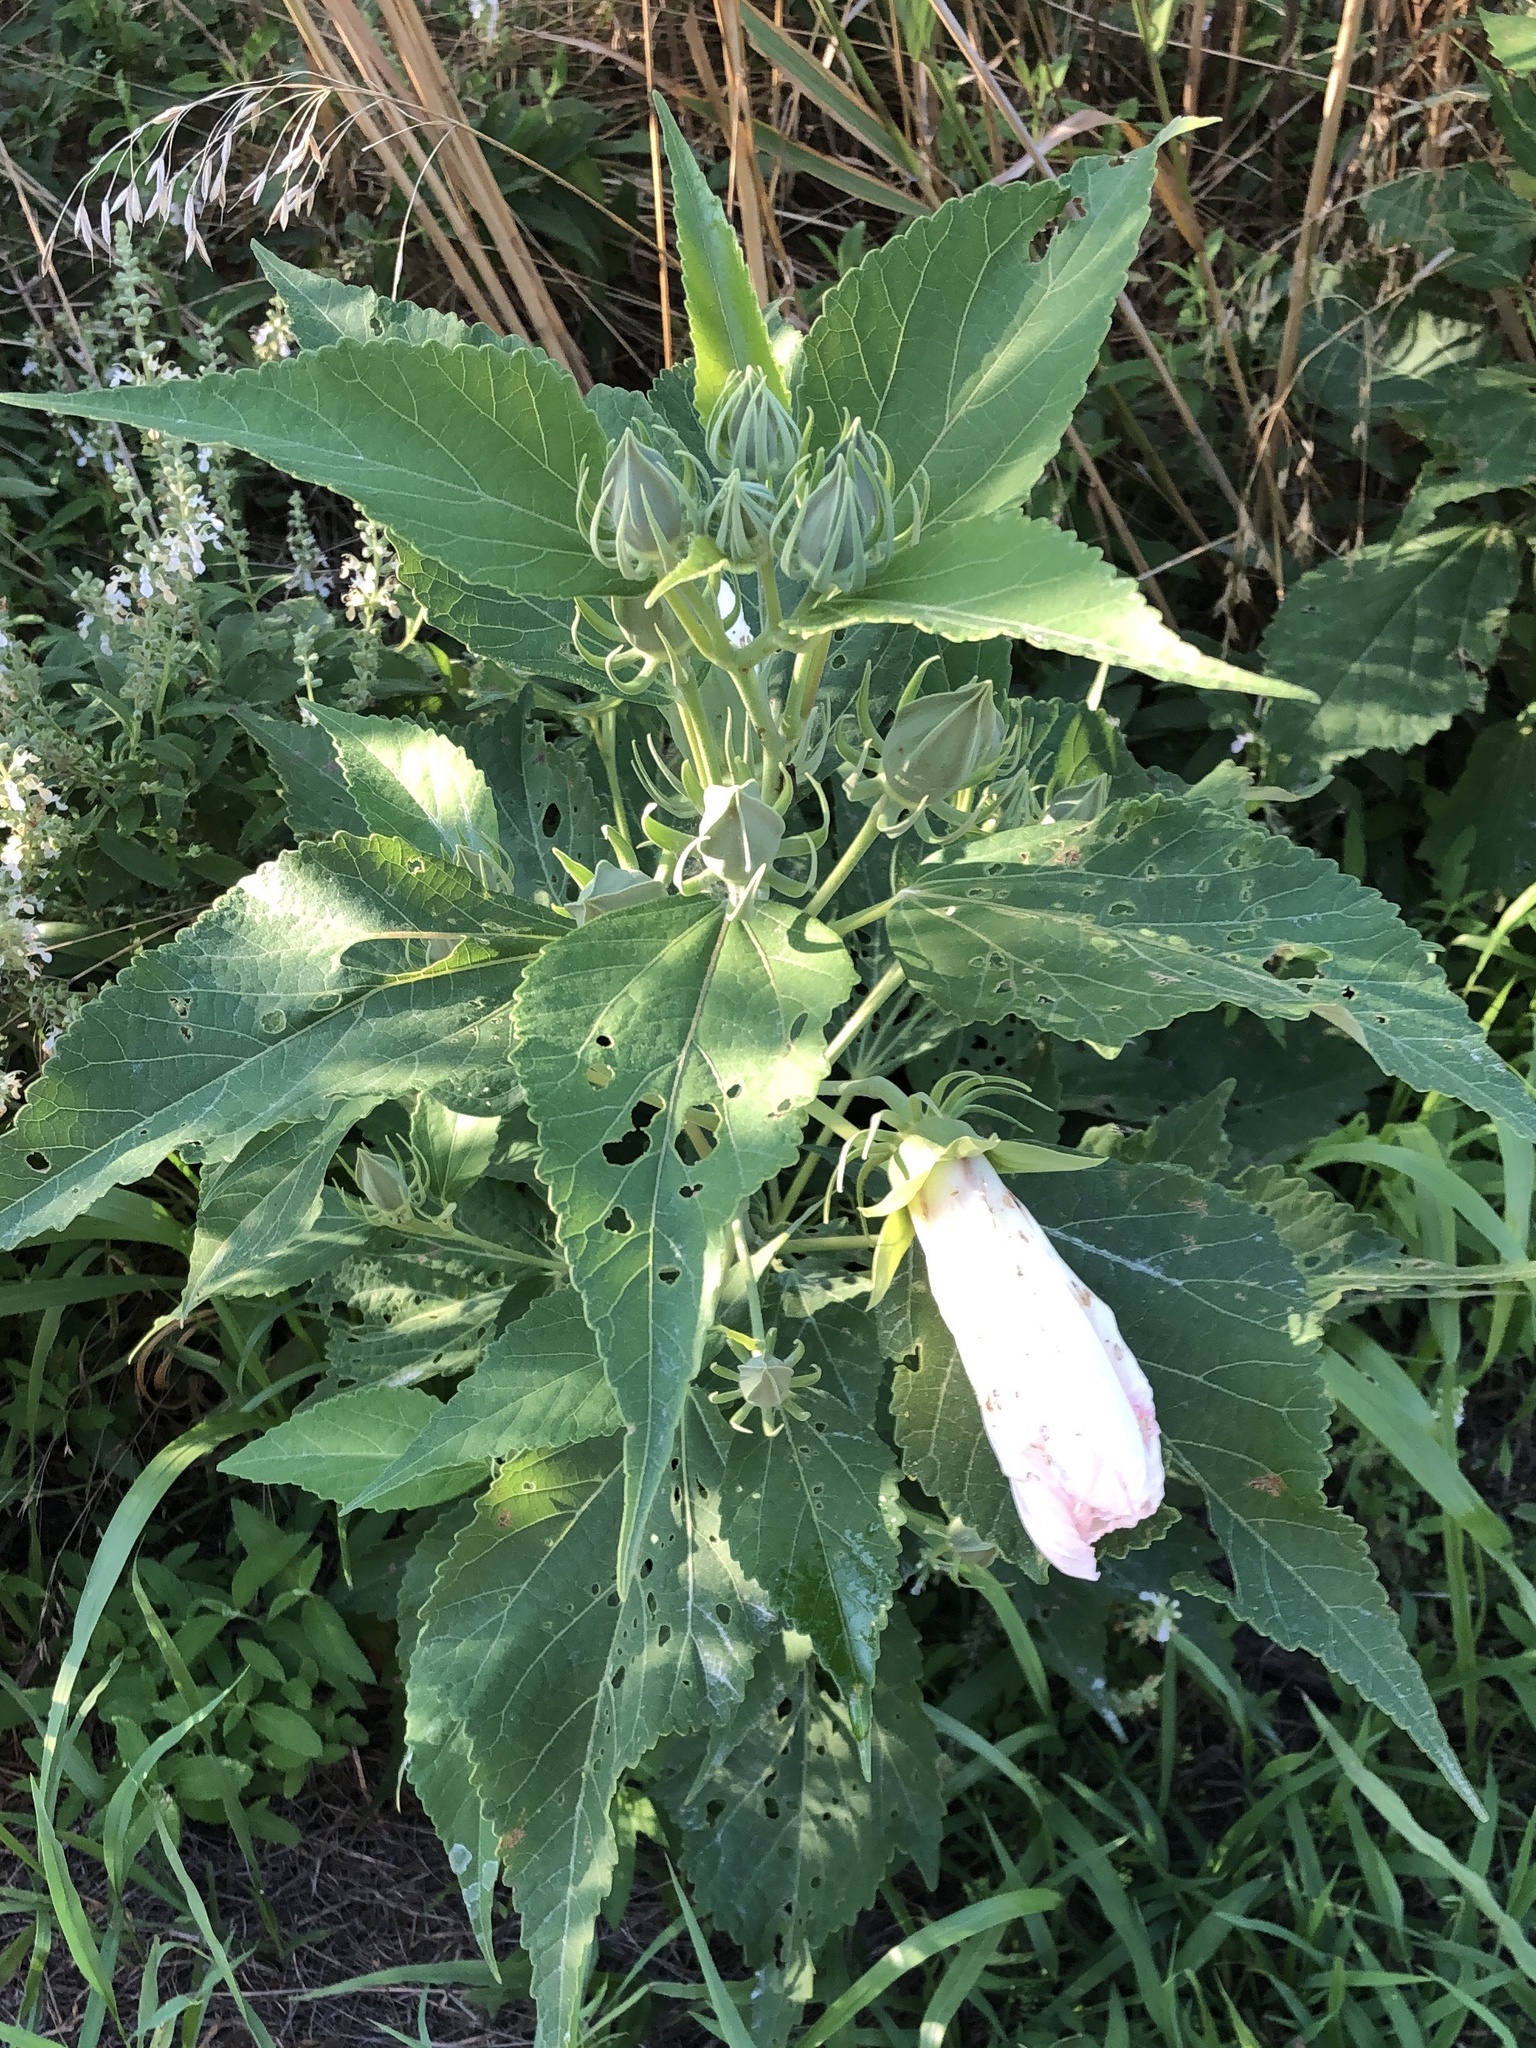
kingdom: Plantae
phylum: Tracheophyta
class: Magnoliopsida
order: Malvales
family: Malvaceae
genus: Hibiscus
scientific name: Hibiscus moscheutos
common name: Common rose-mallow
